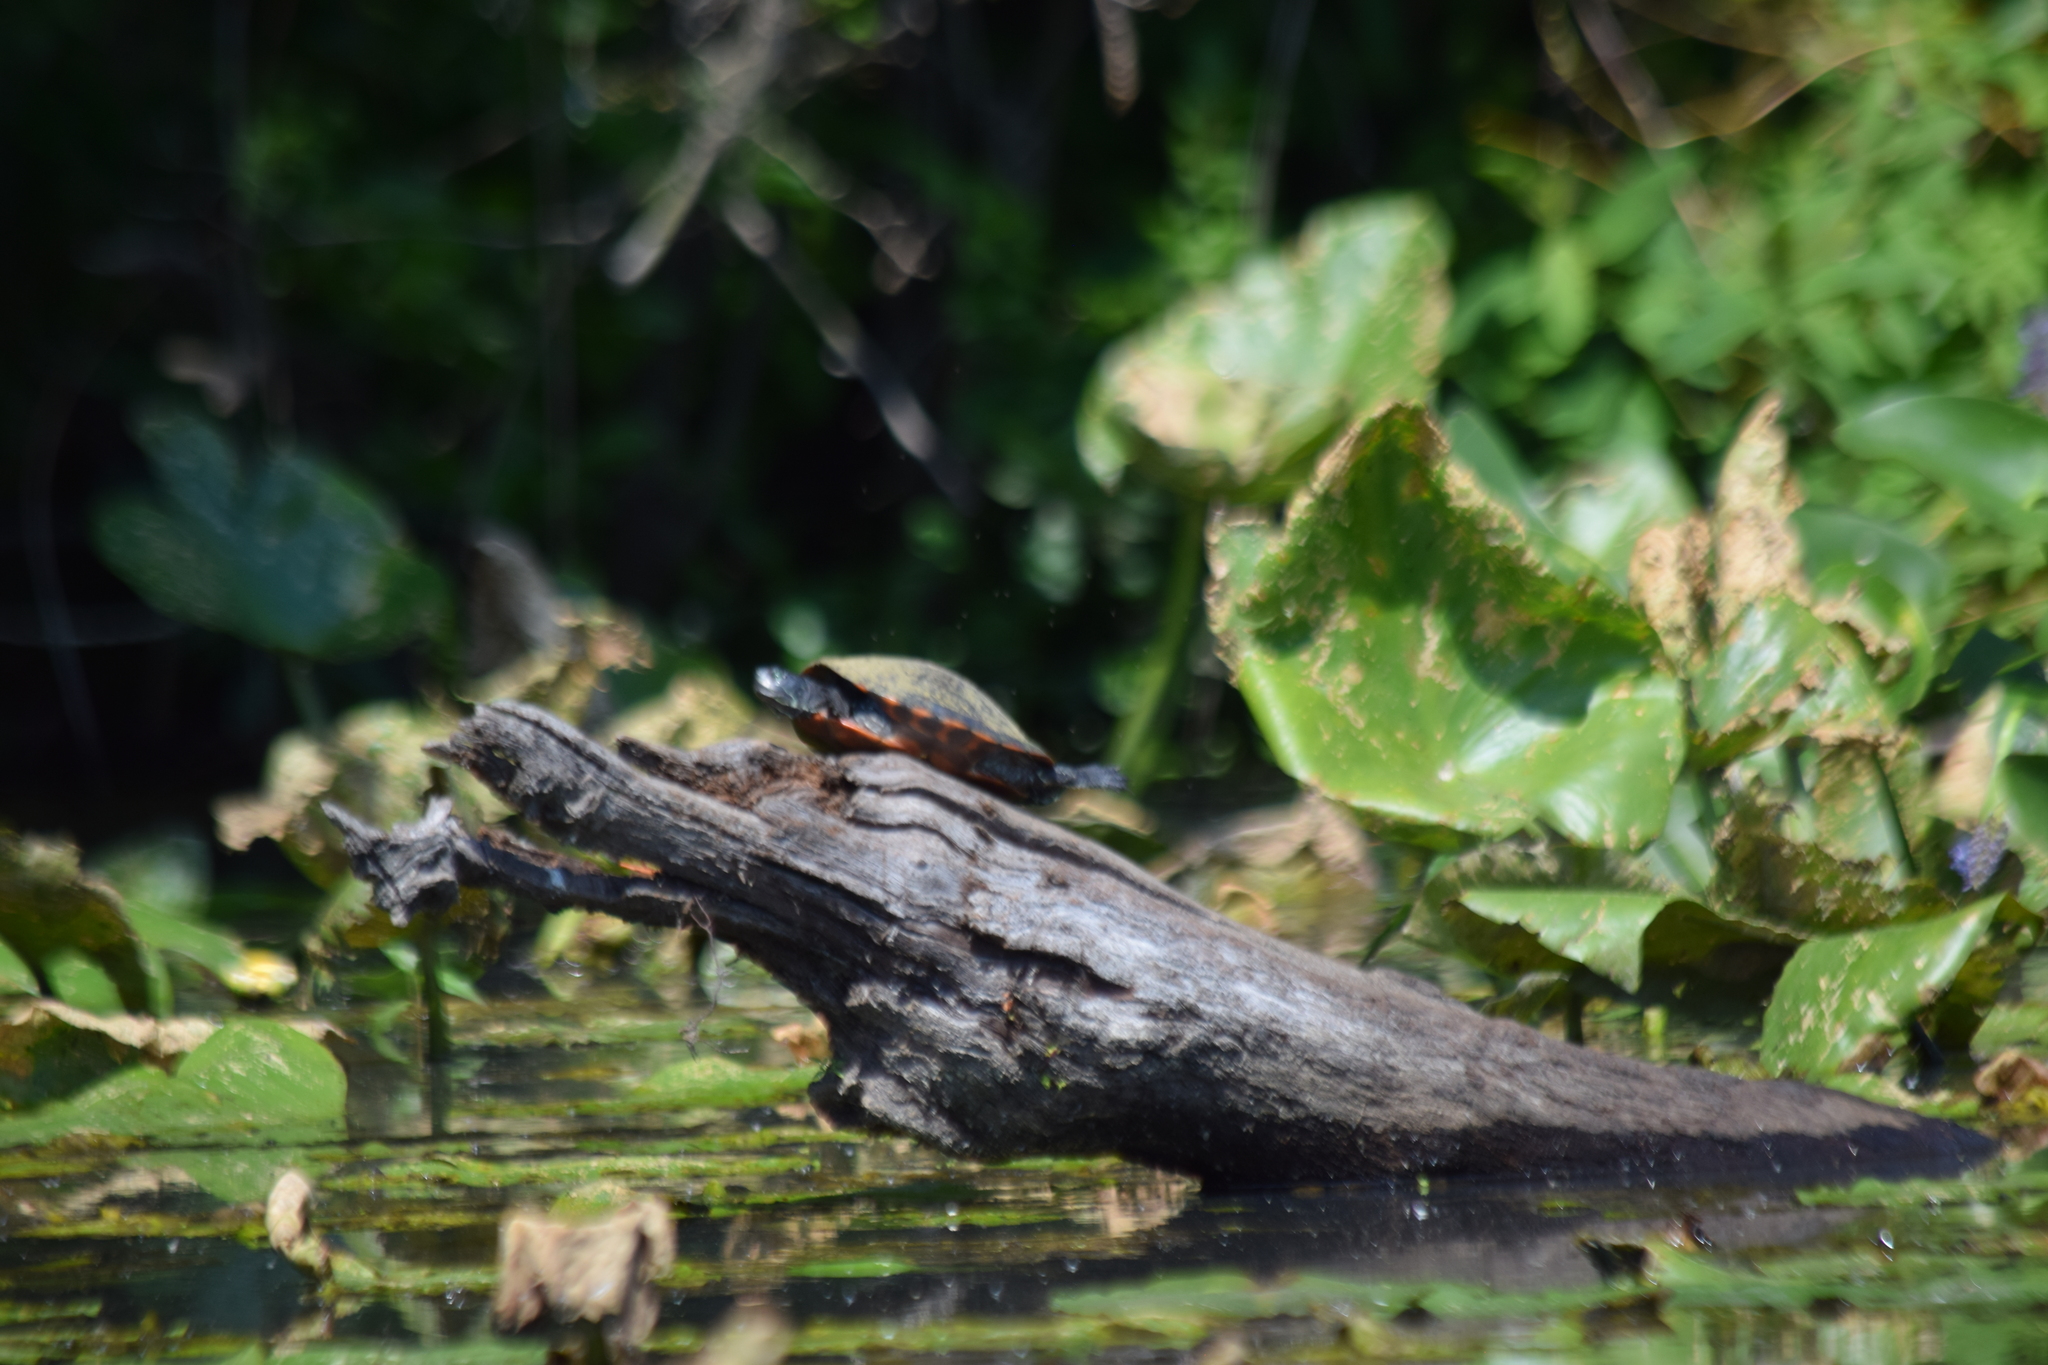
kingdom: Animalia
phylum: Chordata
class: Testudines
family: Emydidae
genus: Pseudemys
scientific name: Pseudemys rubriventris
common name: American red-bellied turtle
